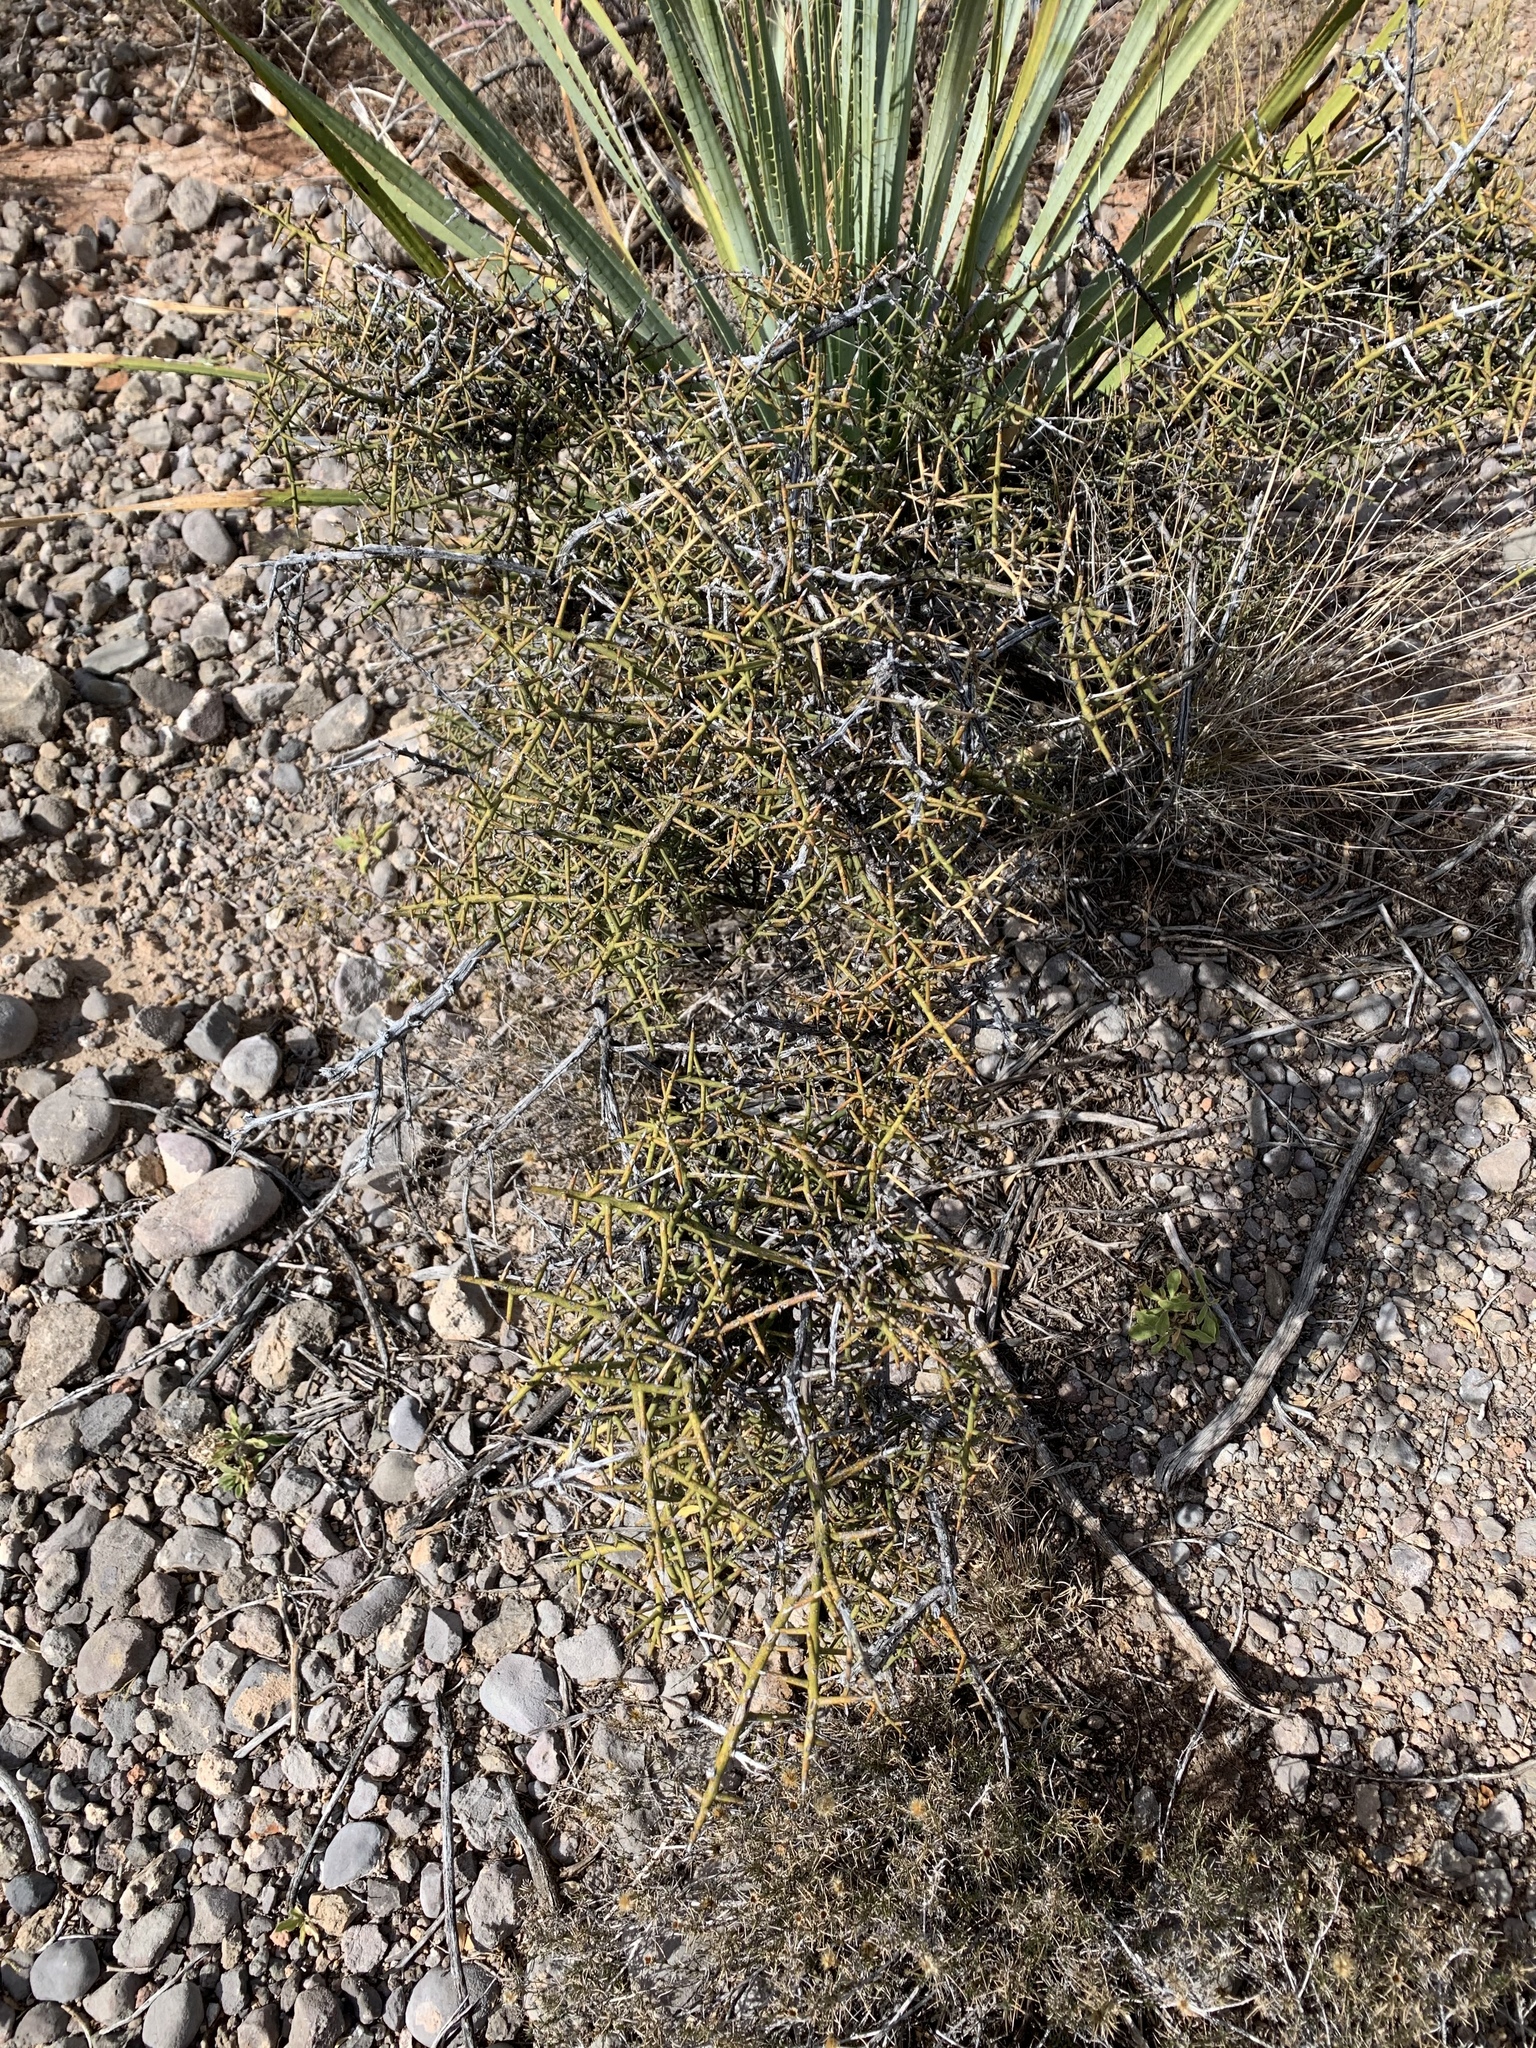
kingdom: Plantae
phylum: Tracheophyta
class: Magnoliopsida
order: Brassicales
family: Koeberliniaceae
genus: Koeberlinia
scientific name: Koeberlinia spinosa
